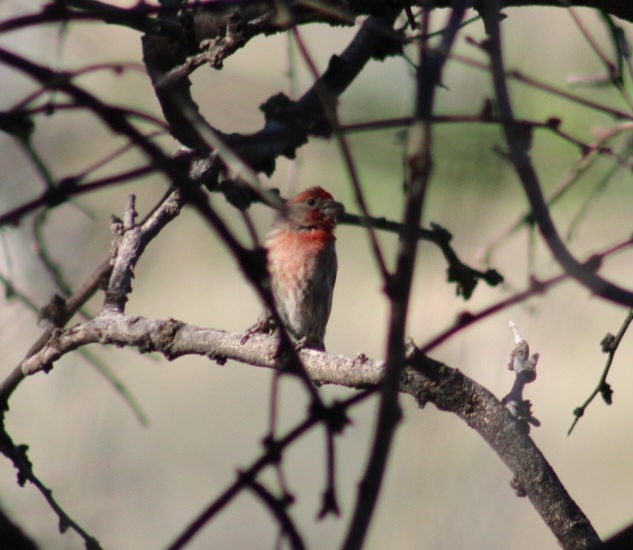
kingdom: Animalia
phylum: Chordata
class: Aves
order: Passeriformes
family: Fringillidae
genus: Haemorhous
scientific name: Haemorhous mexicanus
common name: House finch
